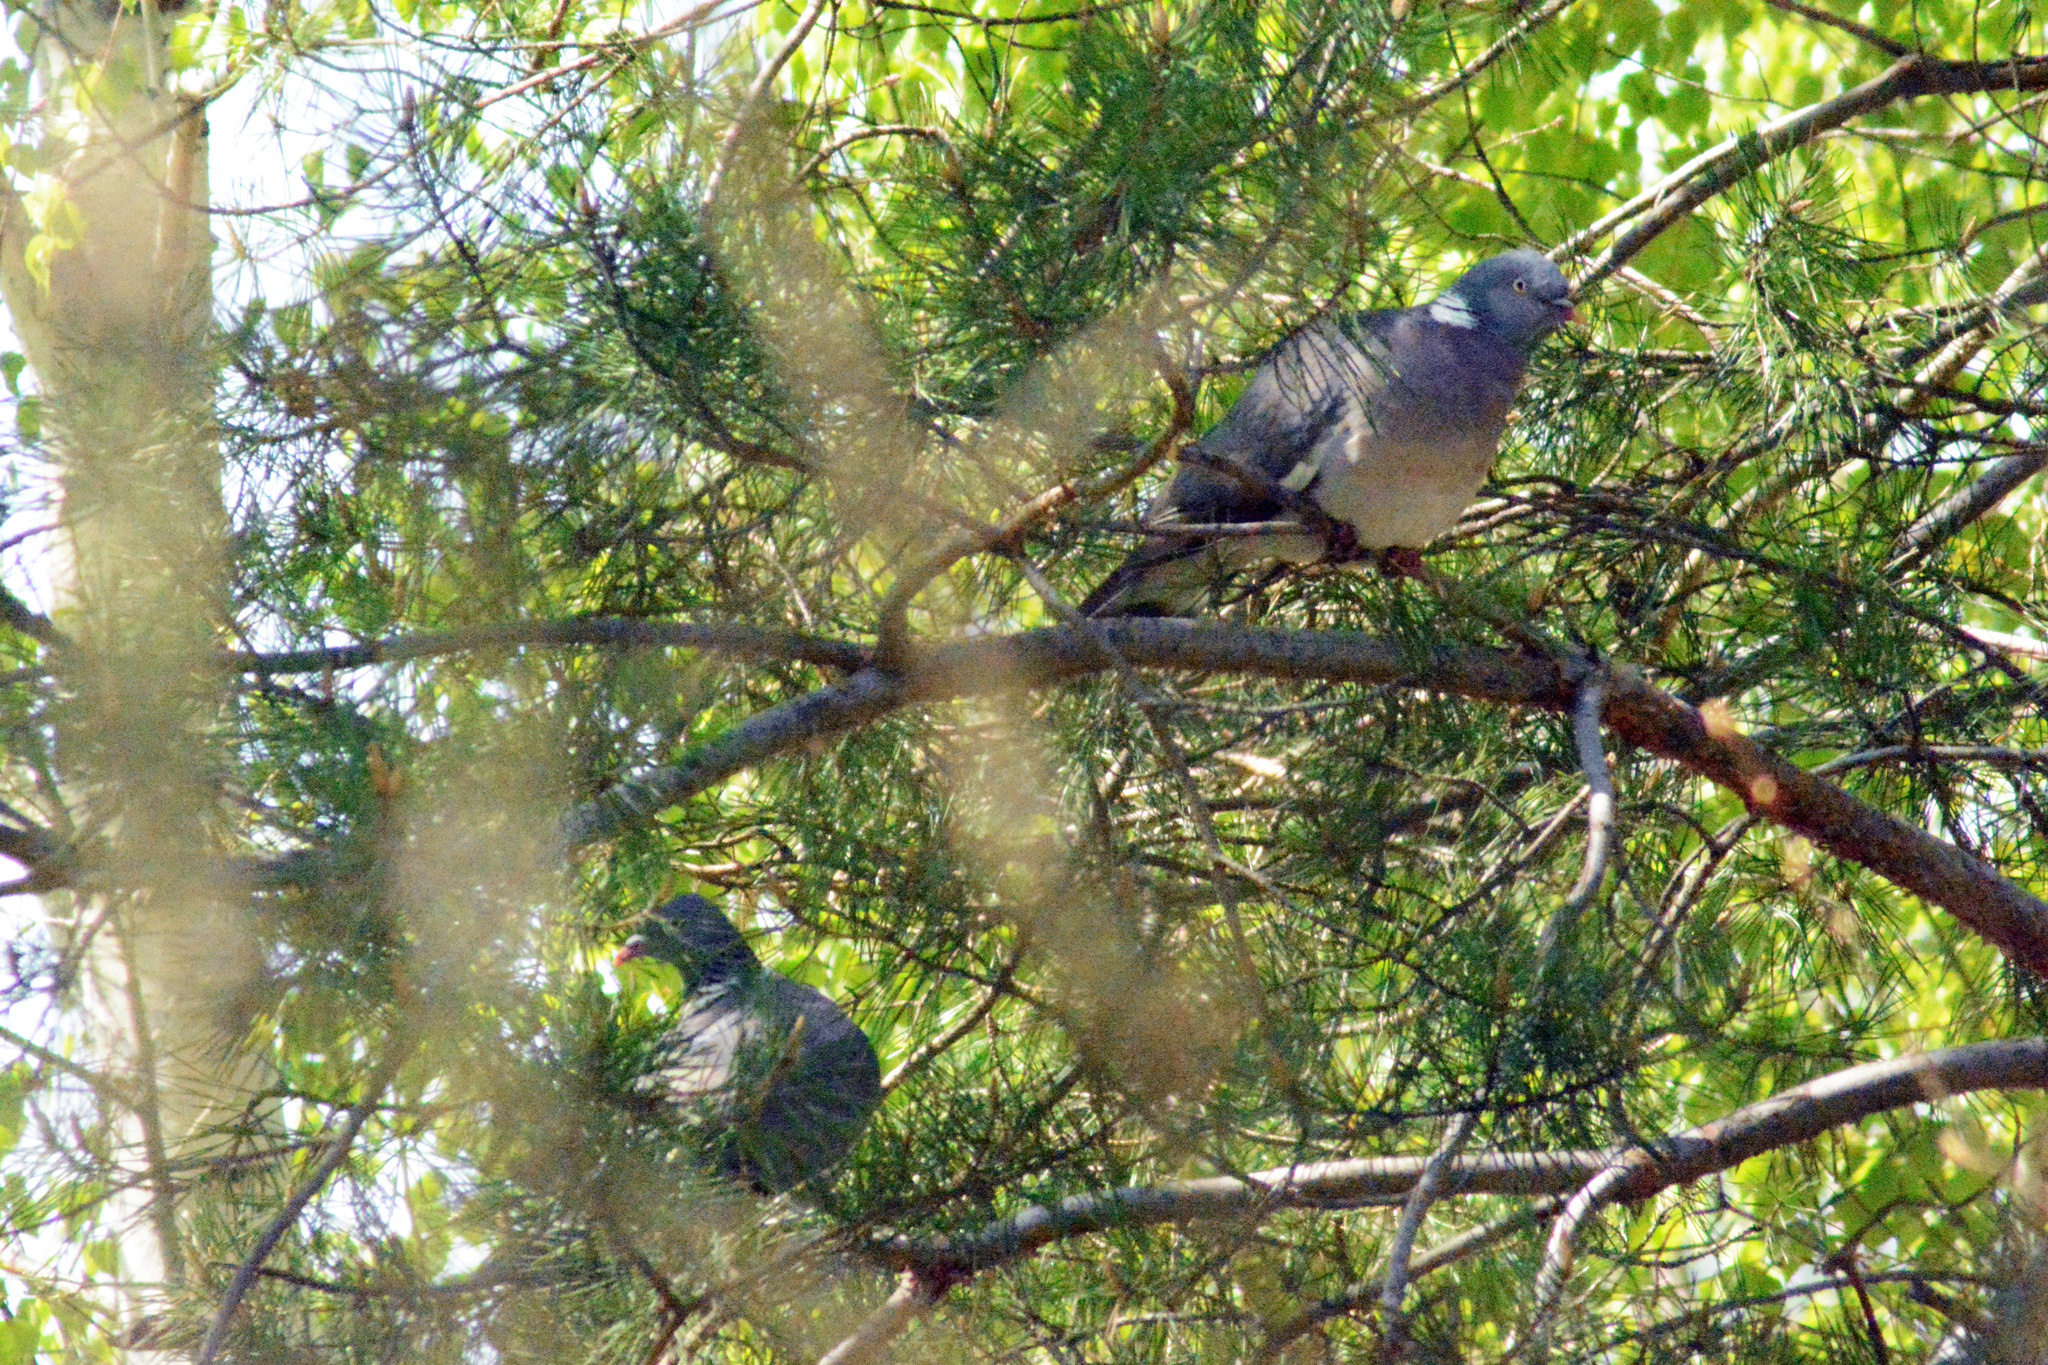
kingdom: Animalia
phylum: Chordata
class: Aves
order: Columbiformes
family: Columbidae
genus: Columba
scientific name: Columba palumbus
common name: Common wood pigeon
